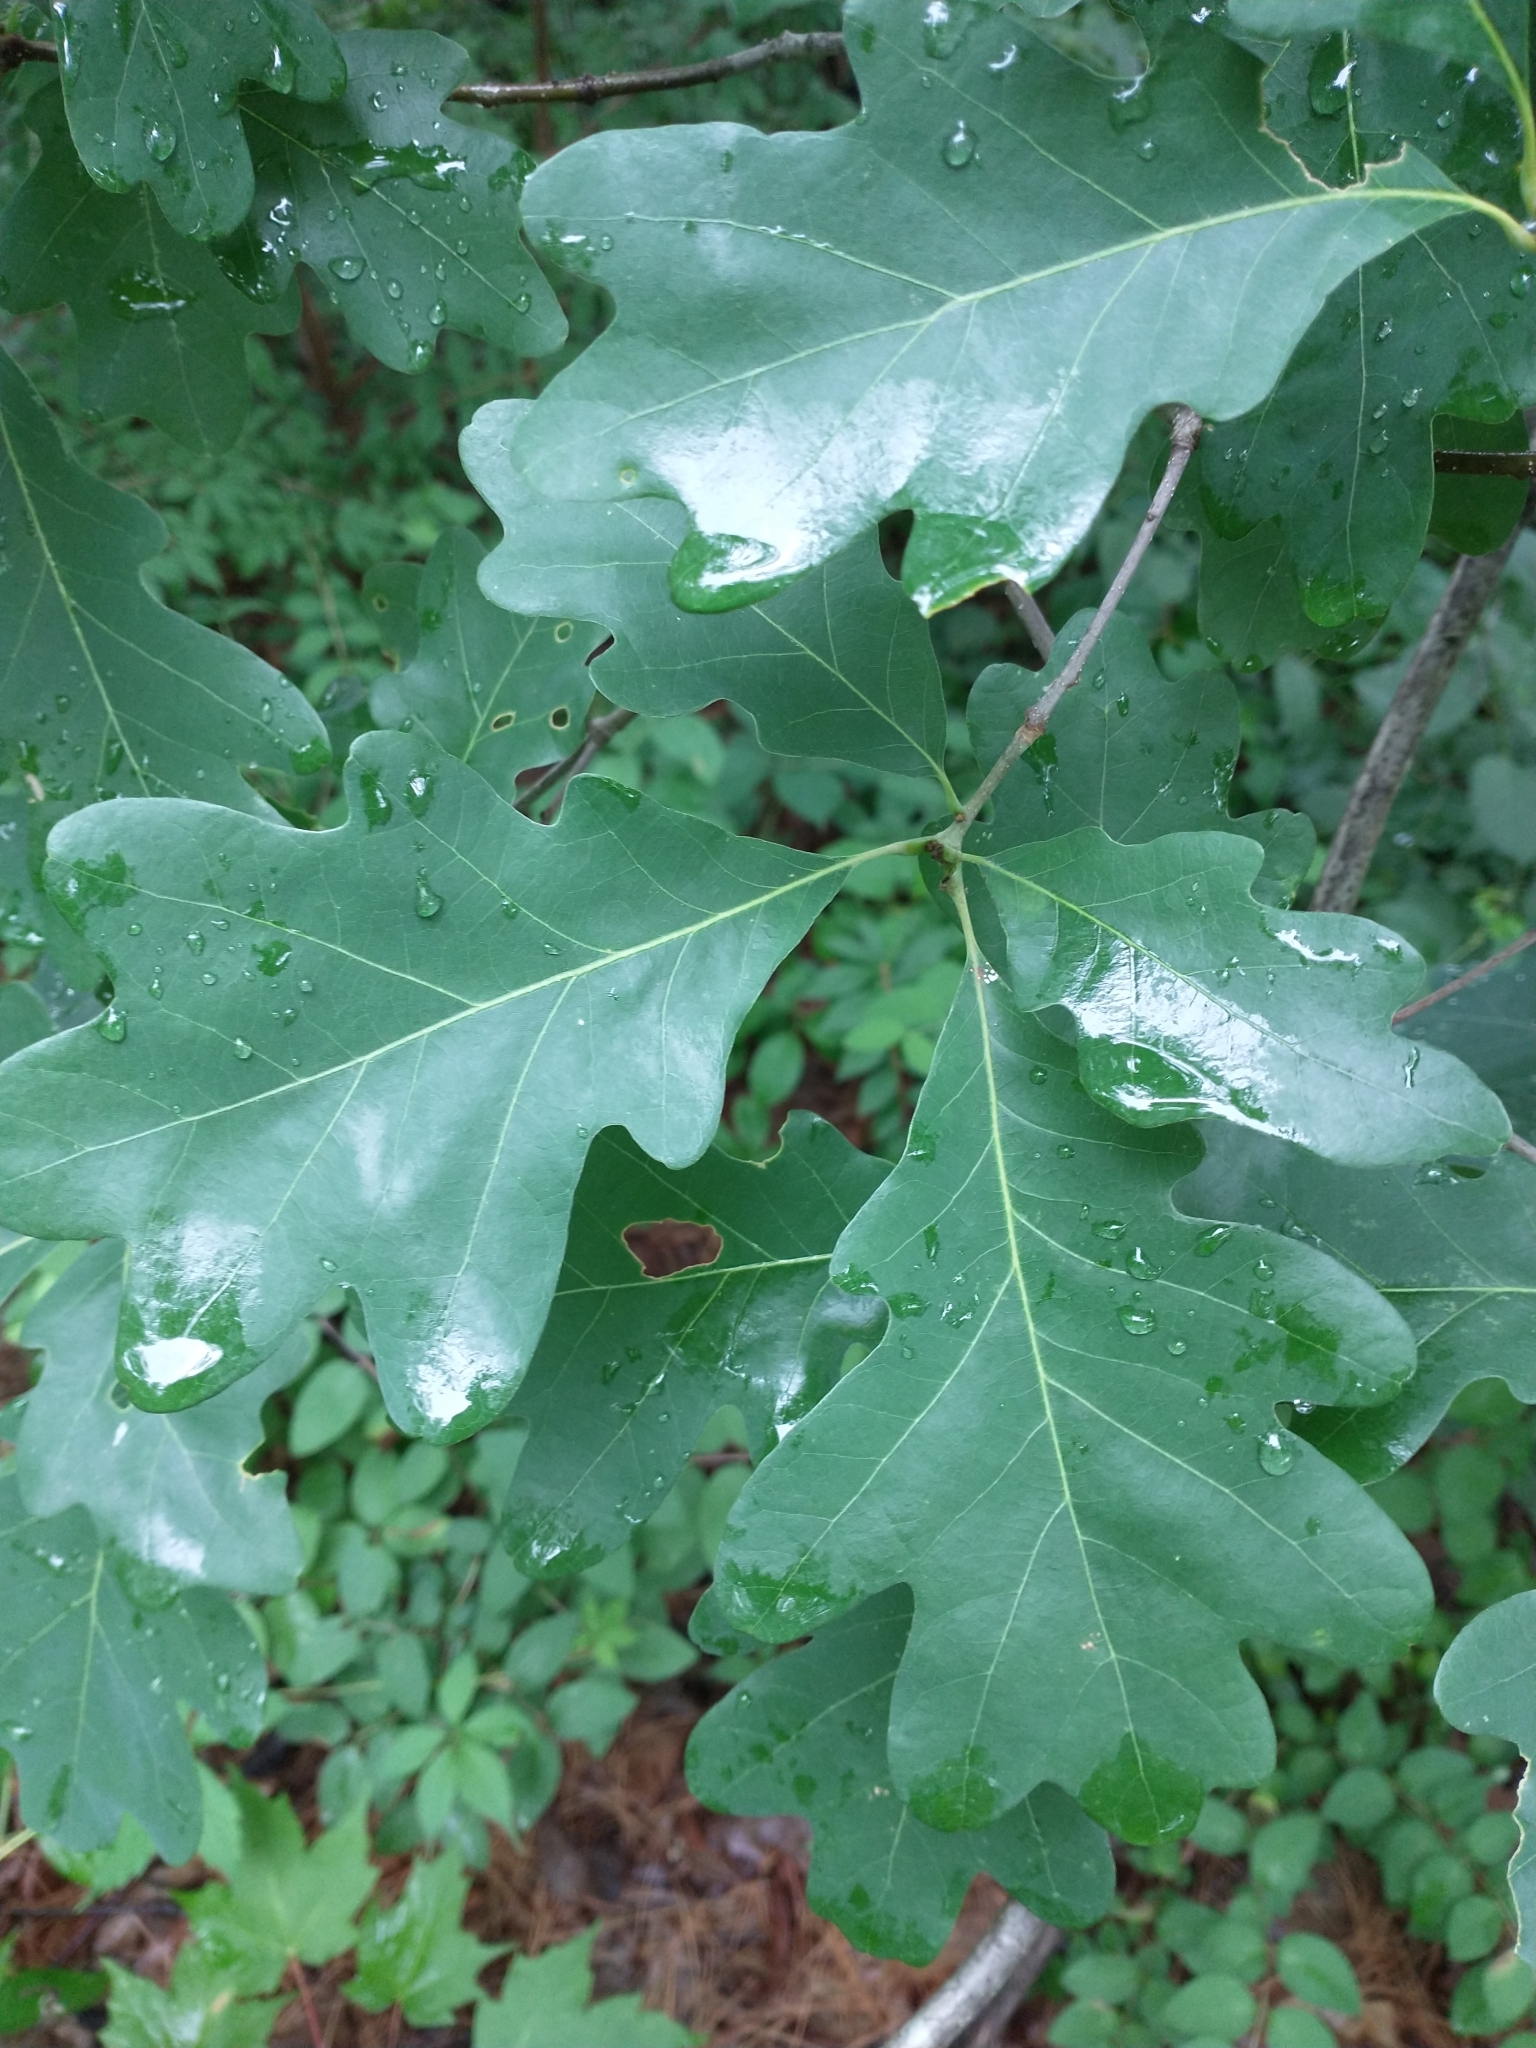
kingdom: Plantae
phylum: Tracheophyta
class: Magnoliopsida
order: Fagales
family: Fagaceae
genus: Quercus
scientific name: Quercus alba
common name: White oak
